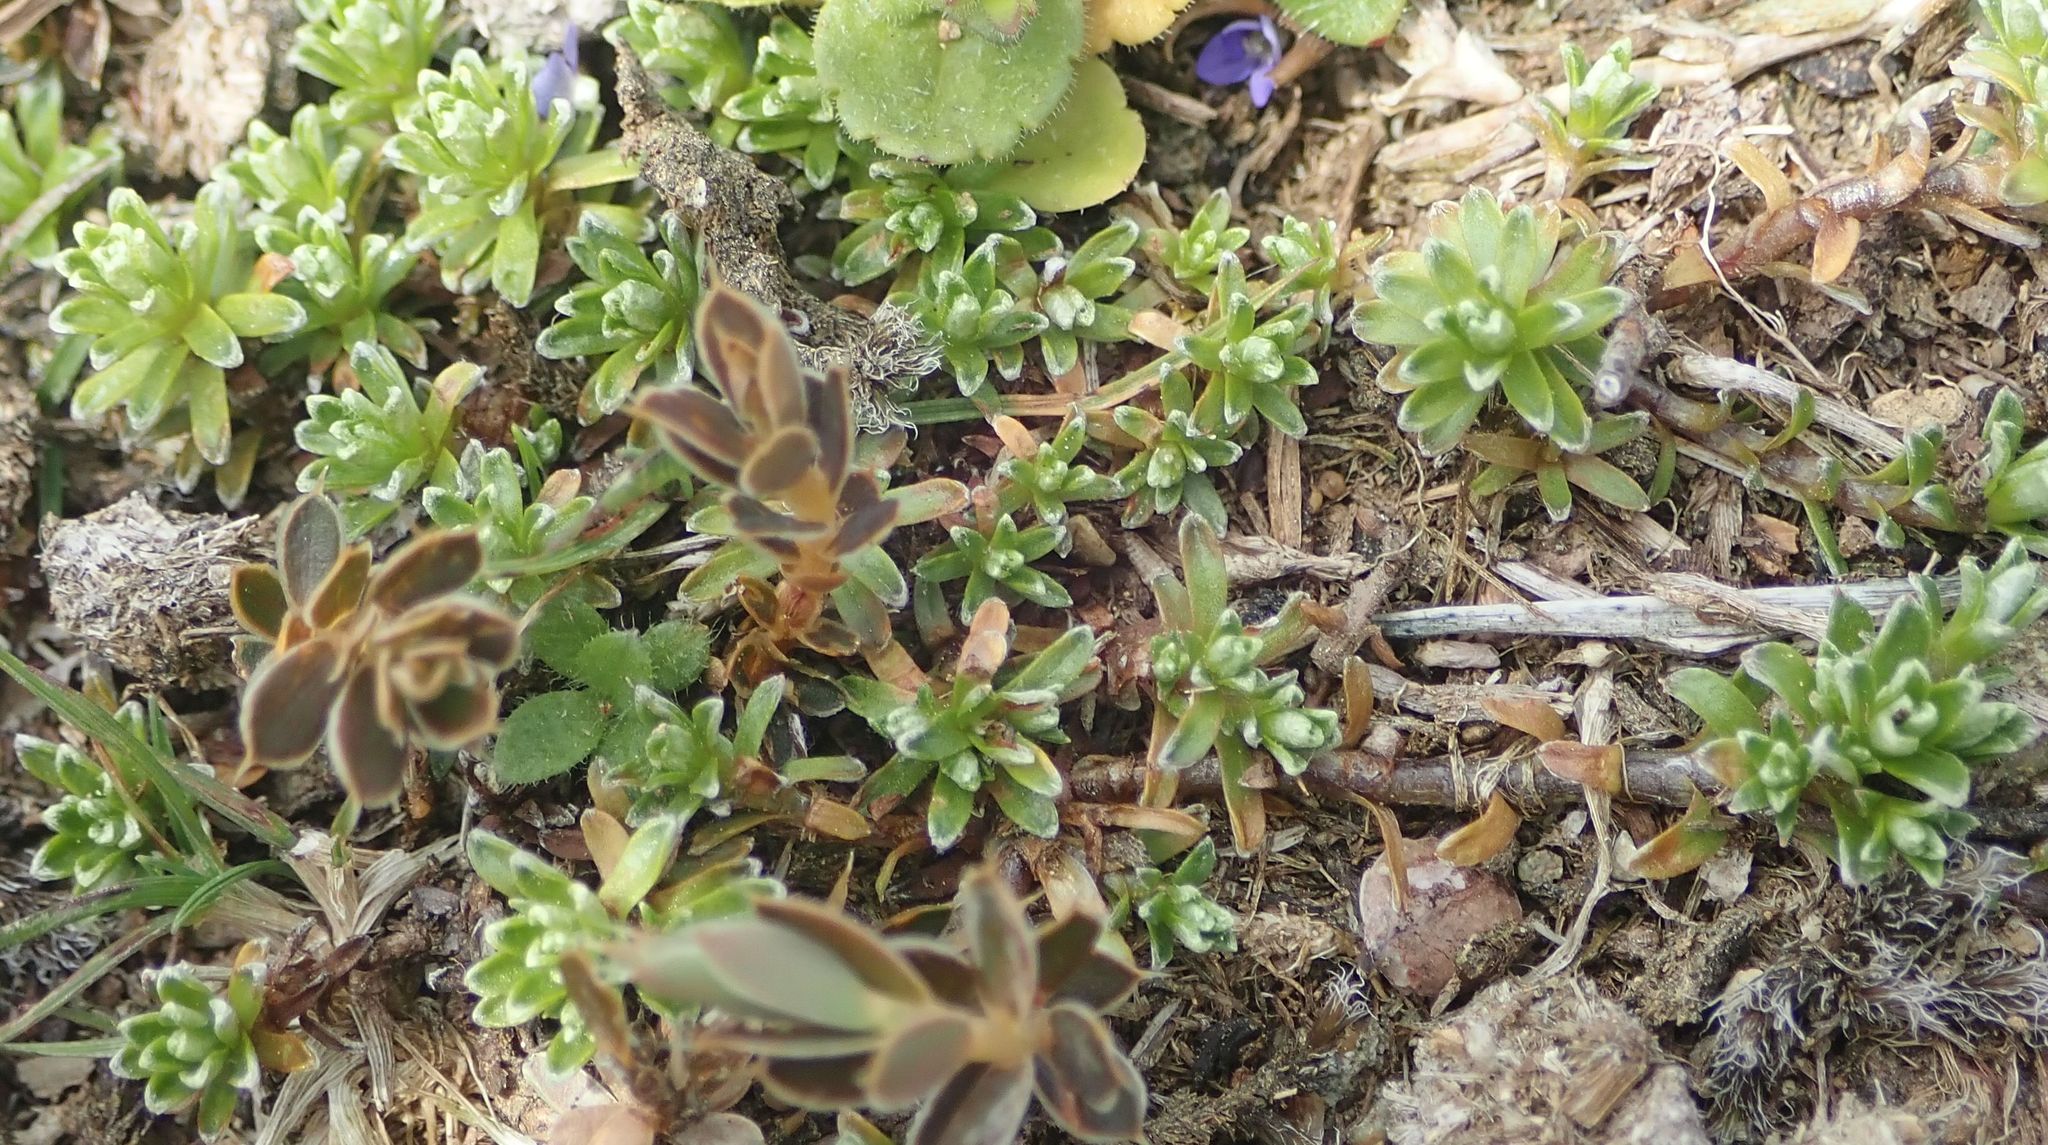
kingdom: Plantae
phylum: Tracheophyta
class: Magnoliopsida
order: Asterales
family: Asteraceae
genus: Raoulia
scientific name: Raoulia subsericea
